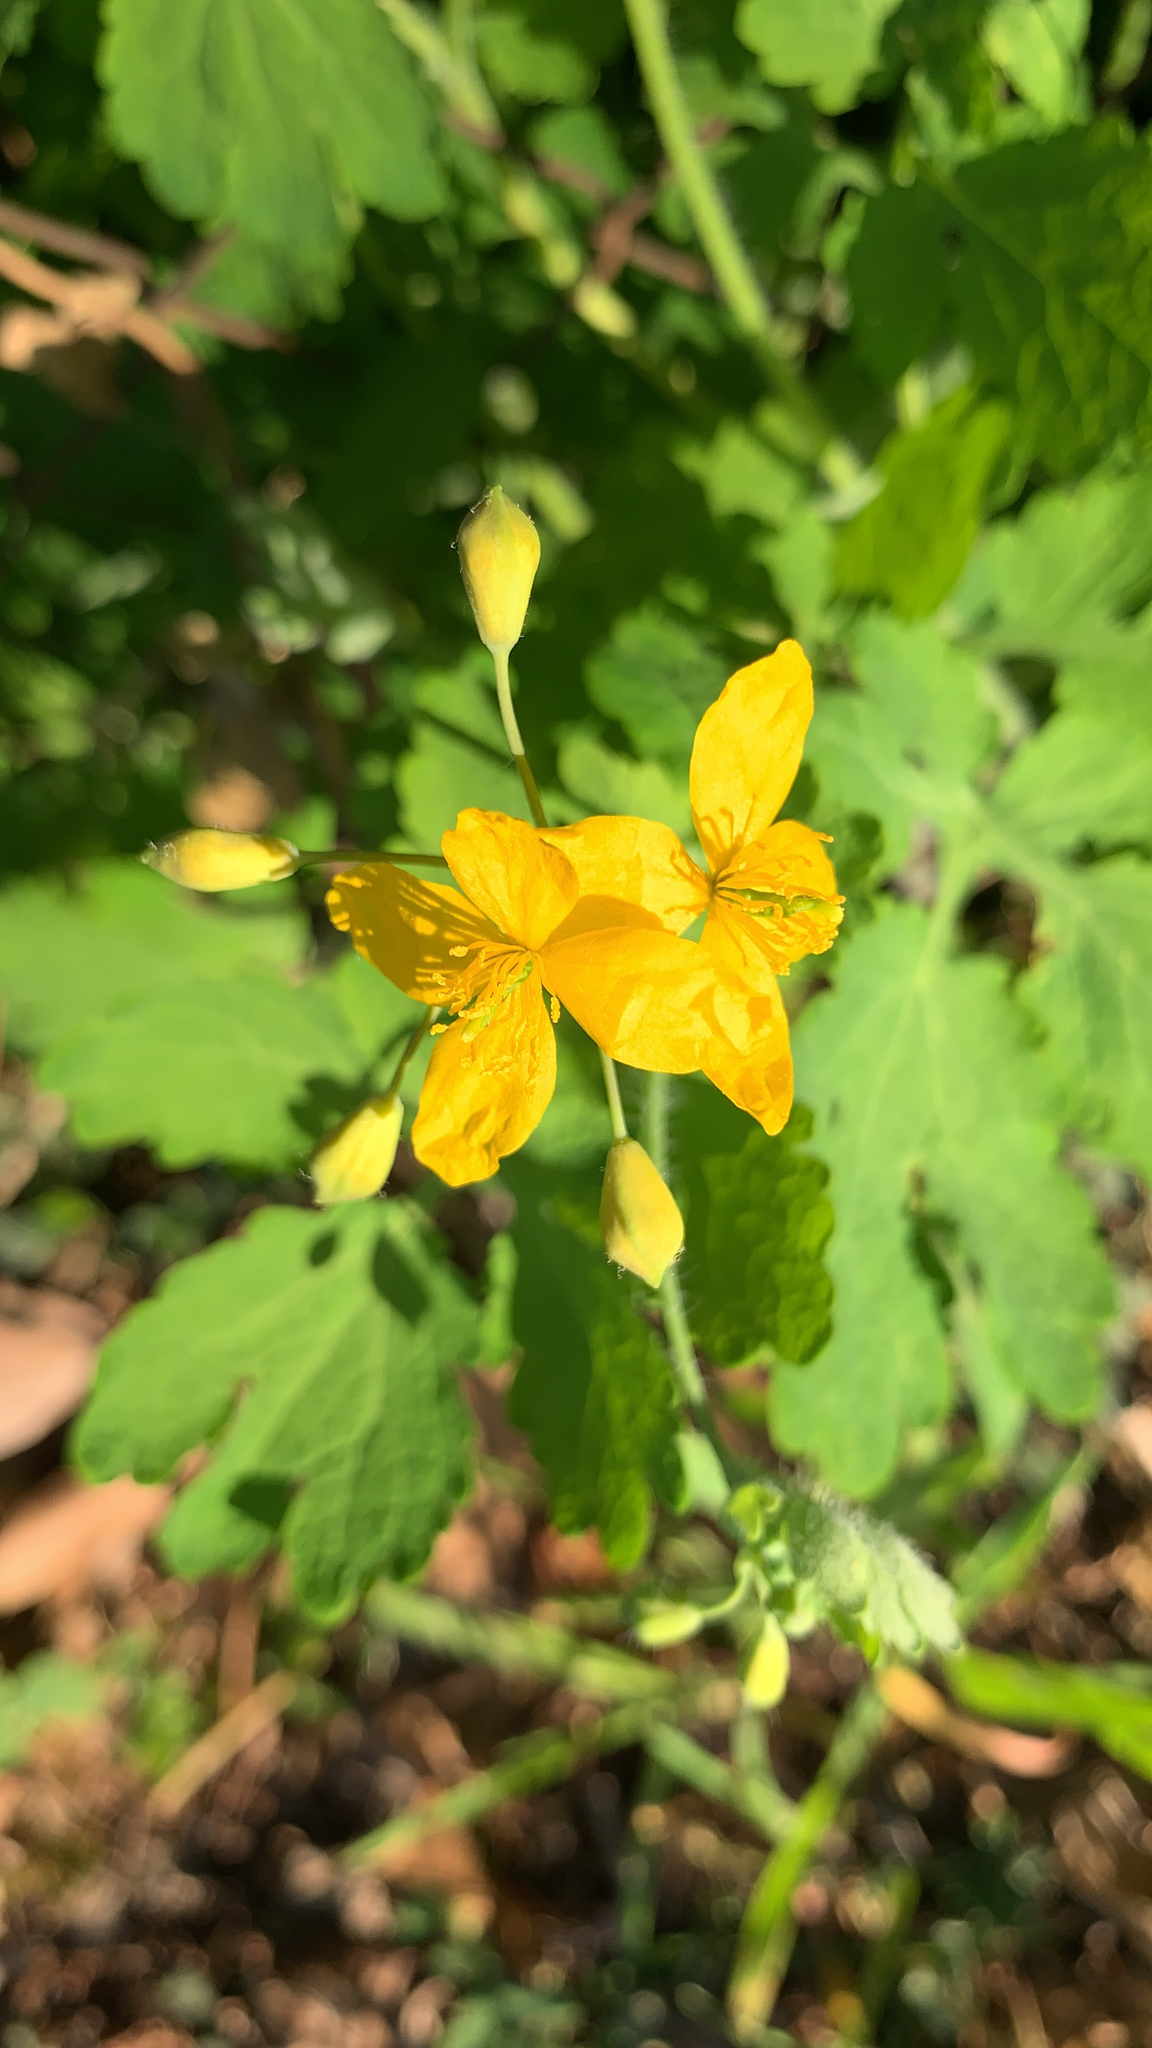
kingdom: Plantae
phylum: Tracheophyta
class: Magnoliopsida
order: Ranunculales
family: Papaveraceae
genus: Chelidonium
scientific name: Chelidonium majus
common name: Greater celandine
